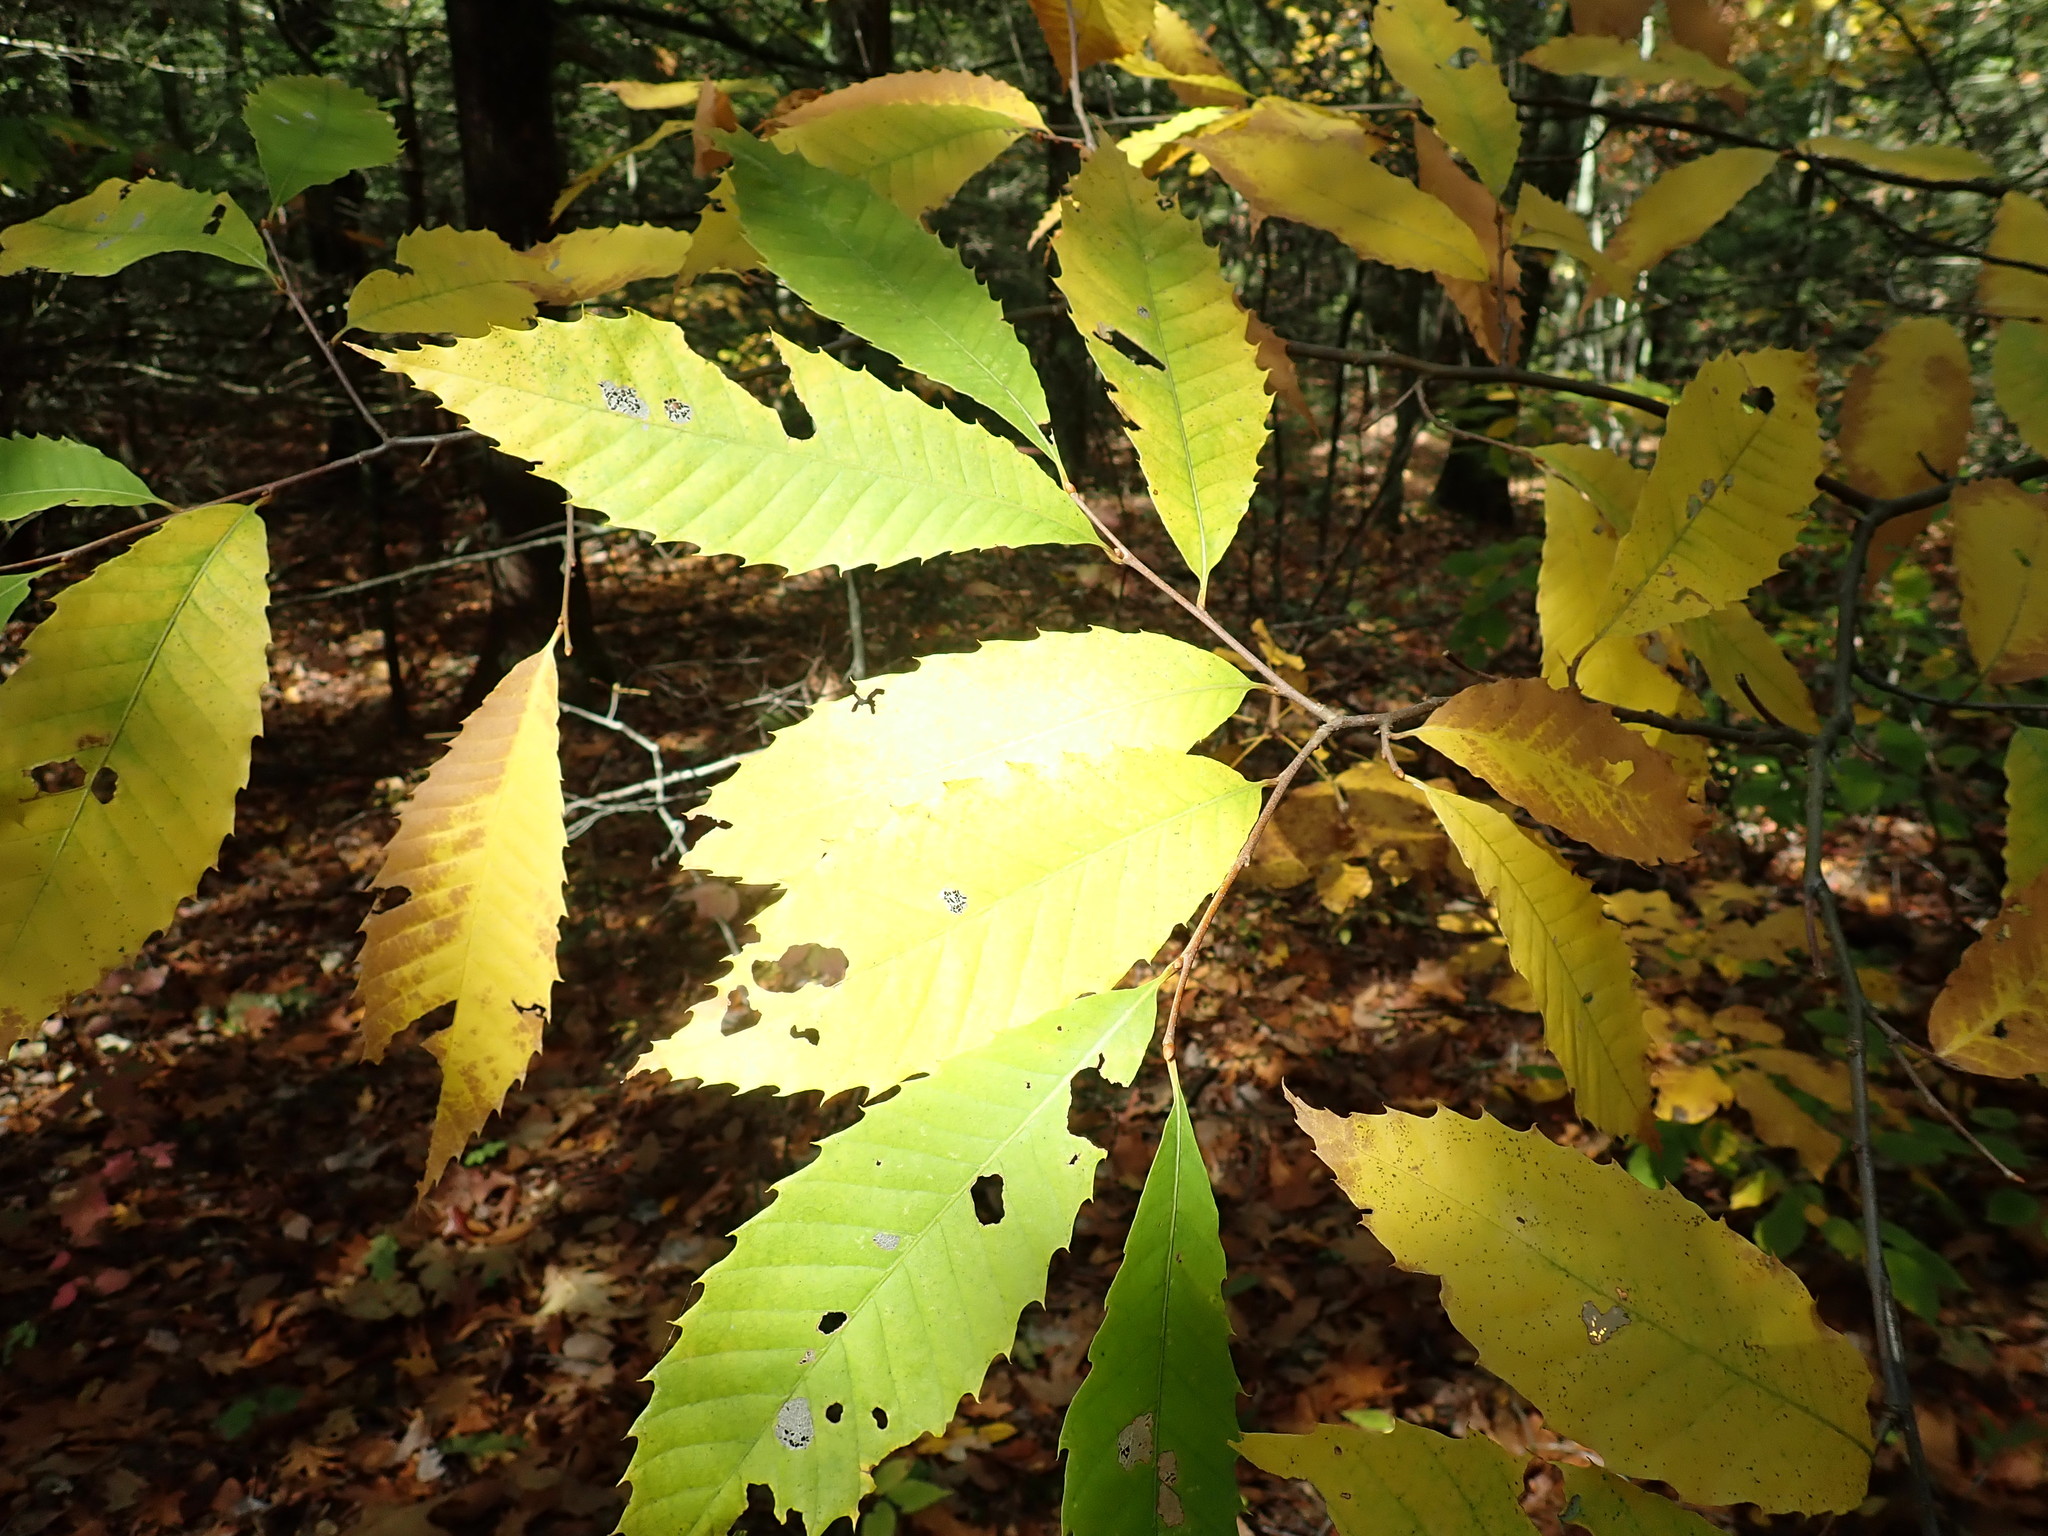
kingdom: Plantae
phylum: Tracheophyta
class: Magnoliopsida
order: Fagales
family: Fagaceae
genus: Castanea
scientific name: Castanea dentata
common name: American chestnut
